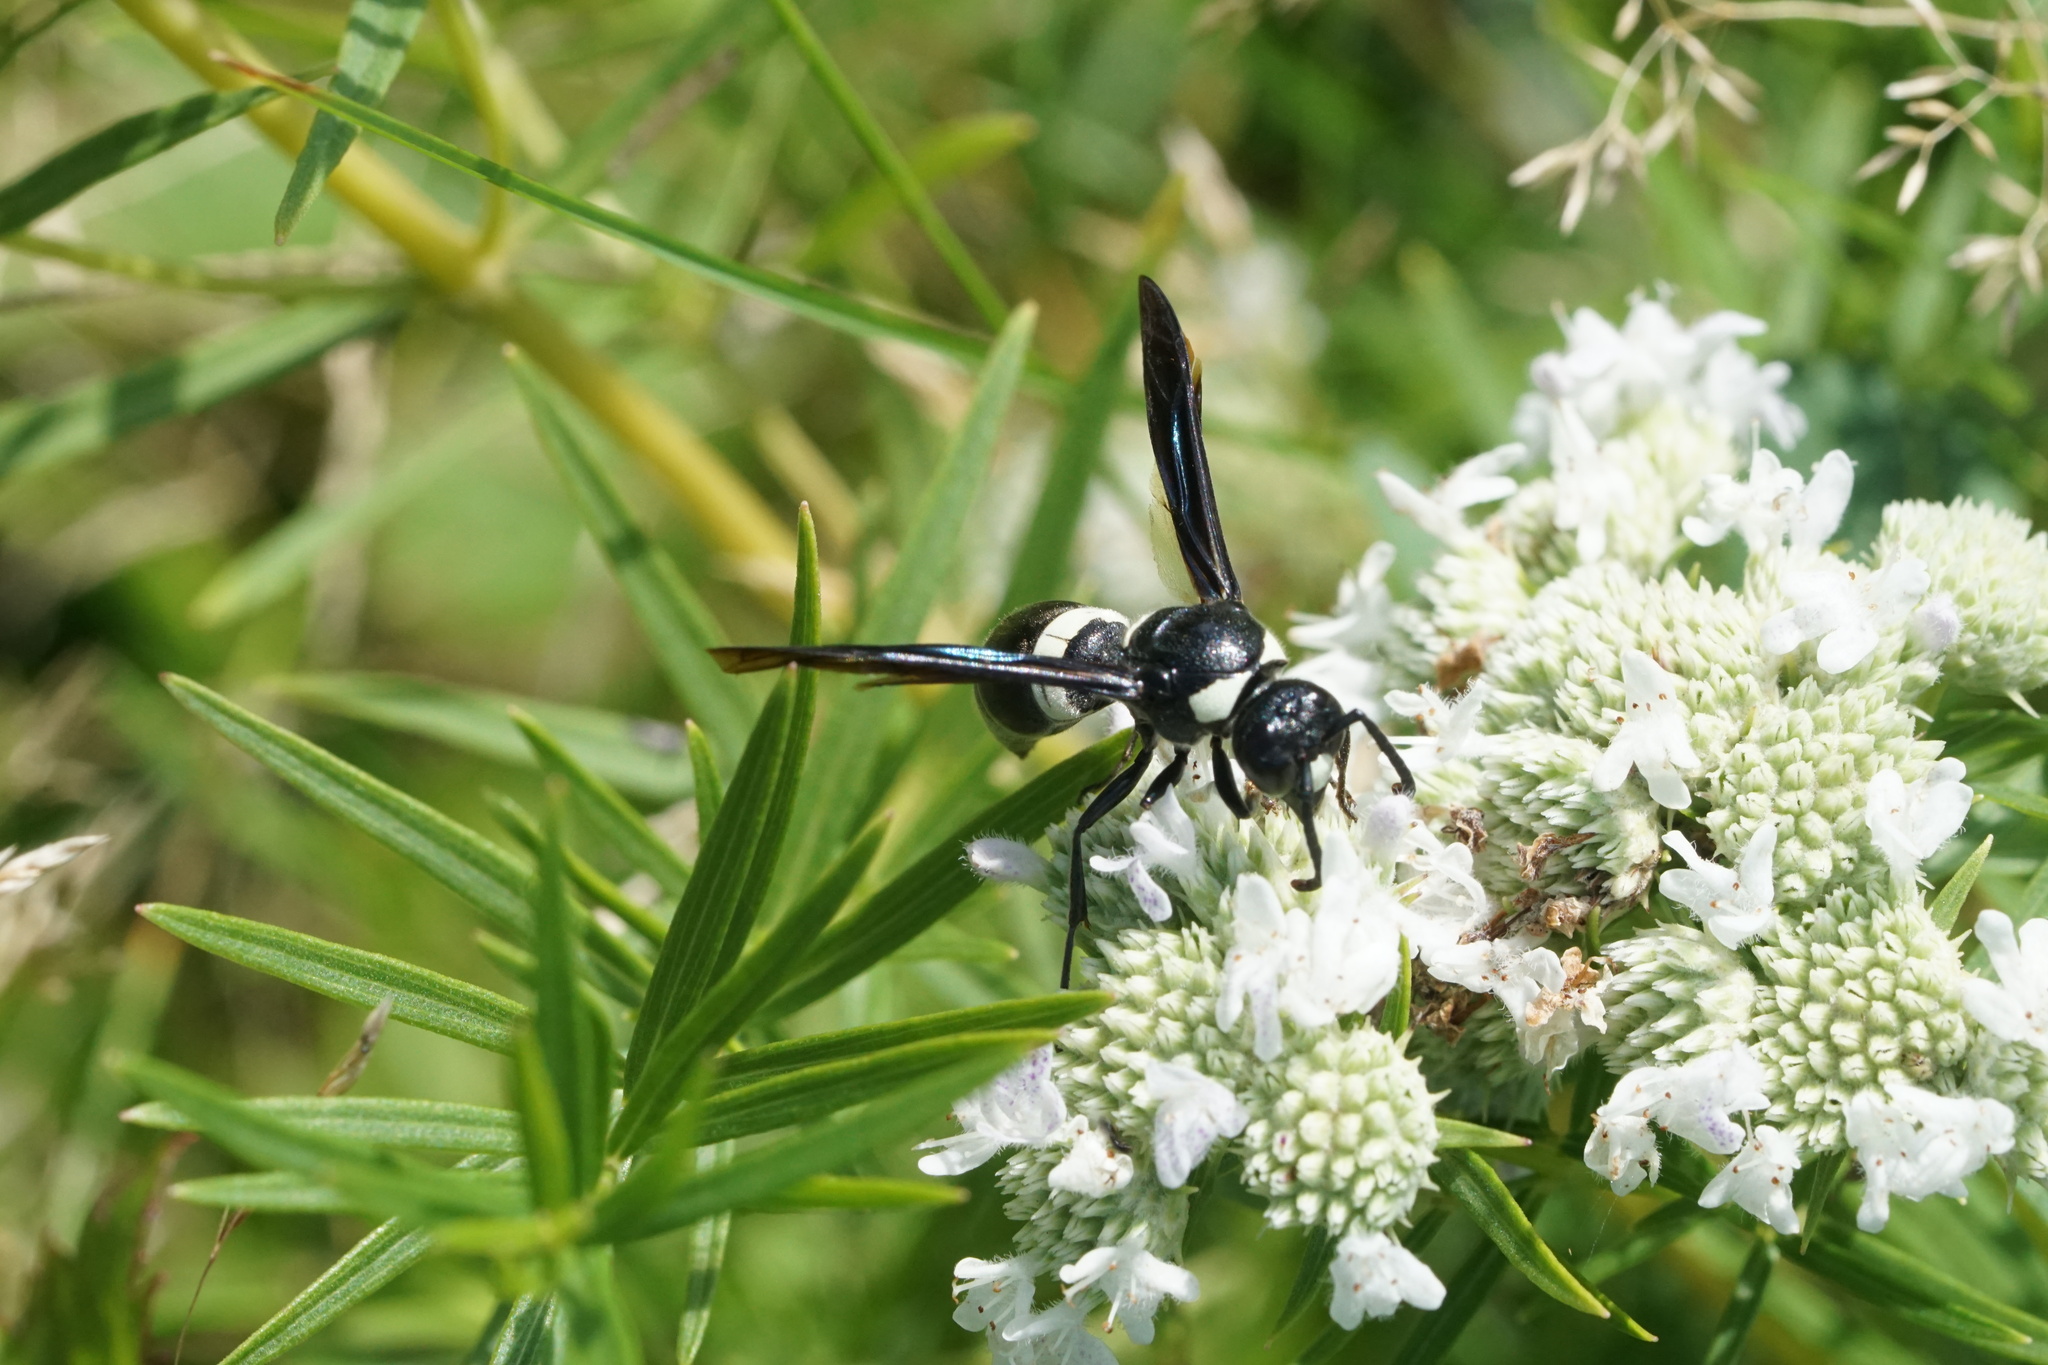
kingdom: Animalia
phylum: Arthropoda
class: Insecta
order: Hymenoptera
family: Eumenidae
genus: Monobia
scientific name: Monobia quadridens
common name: Four-toothed mason wasp
